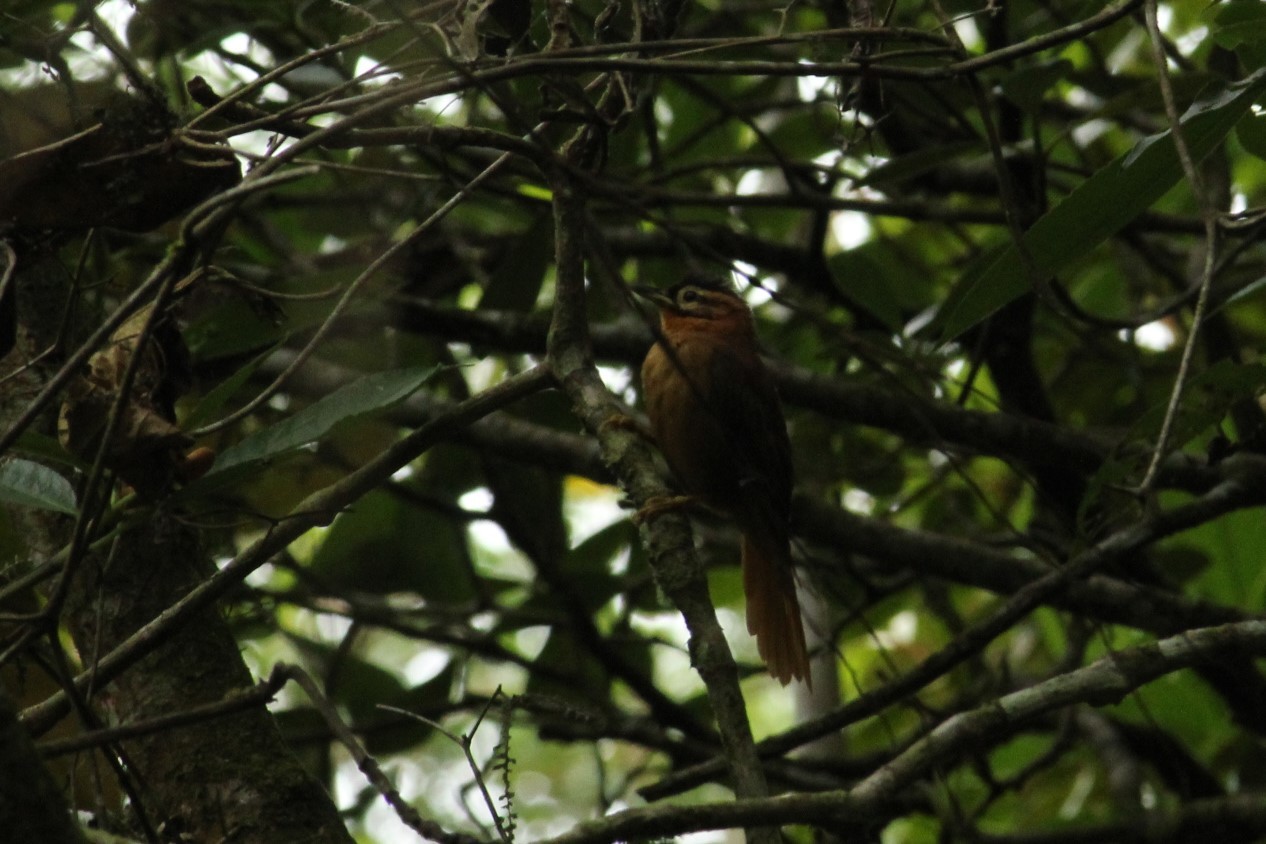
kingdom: Animalia
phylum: Chordata
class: Aves
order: Passeriformes
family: Furnariidae
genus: Philydor
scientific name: Philydor atricapillus
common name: Black-capped foliage-gleaner
